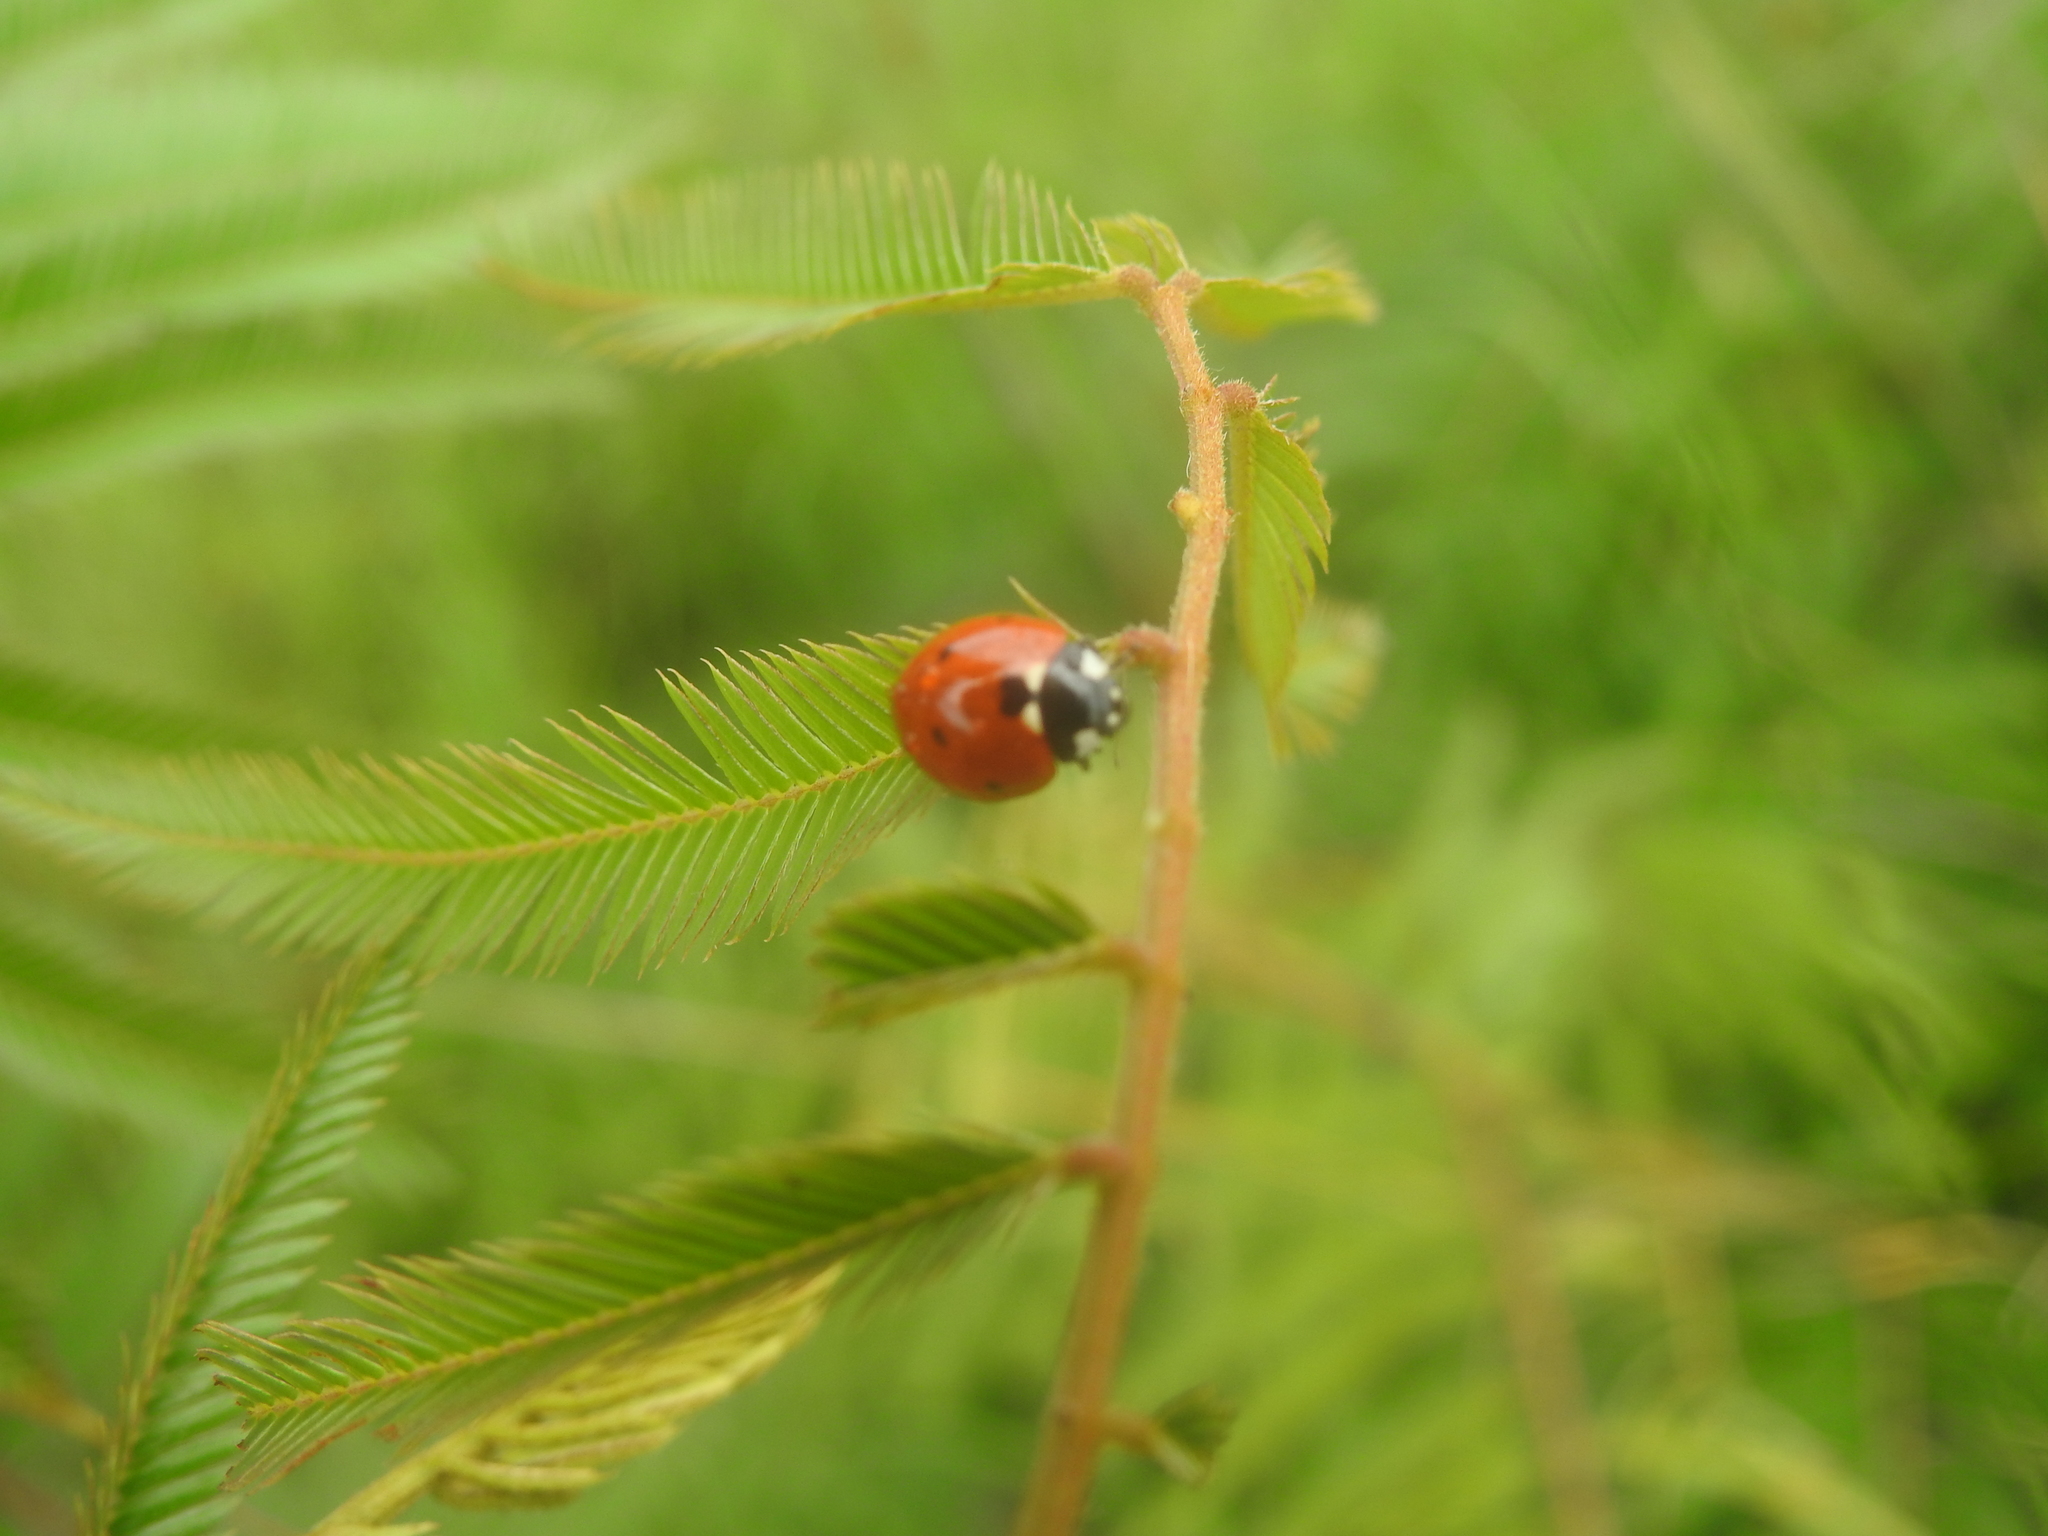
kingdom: Animalia
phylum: Arthropoda
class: Insecta
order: Coleoptera
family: Coccinellidae
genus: Coccinella
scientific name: Coccinella septempunctata
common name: Sevenspotted lady beetle
